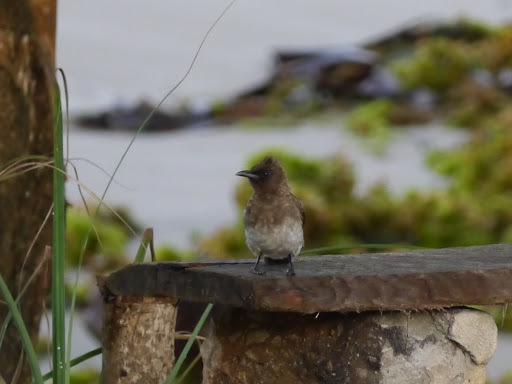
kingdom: Animalia
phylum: Chordata
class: Aves
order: Passeriformes
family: Pycnonotidae
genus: Pycnonotus
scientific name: Pycnonotus barbatus
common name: Common bulbul
